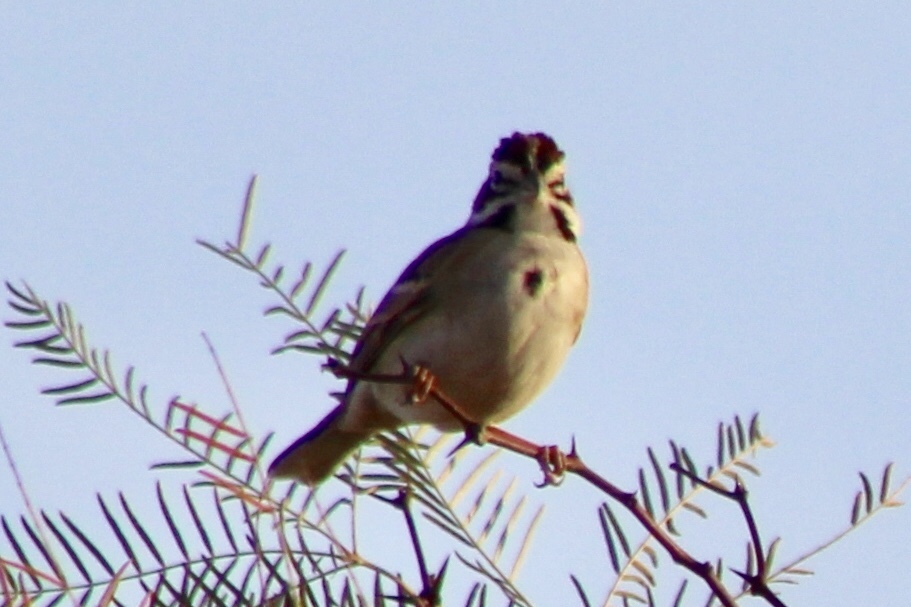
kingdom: Animalia
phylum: Chordata
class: Aves
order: Passeriformes
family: Passerellidae
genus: Chondestes
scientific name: Chondestes grammacus
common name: Lark sparrow
